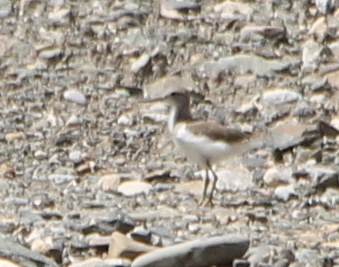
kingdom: Animalia
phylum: Chordata
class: Aves
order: Charadriiformes
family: Scolopacidae
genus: Actitis
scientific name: Actitis hypoleucos
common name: Common sandpiper
